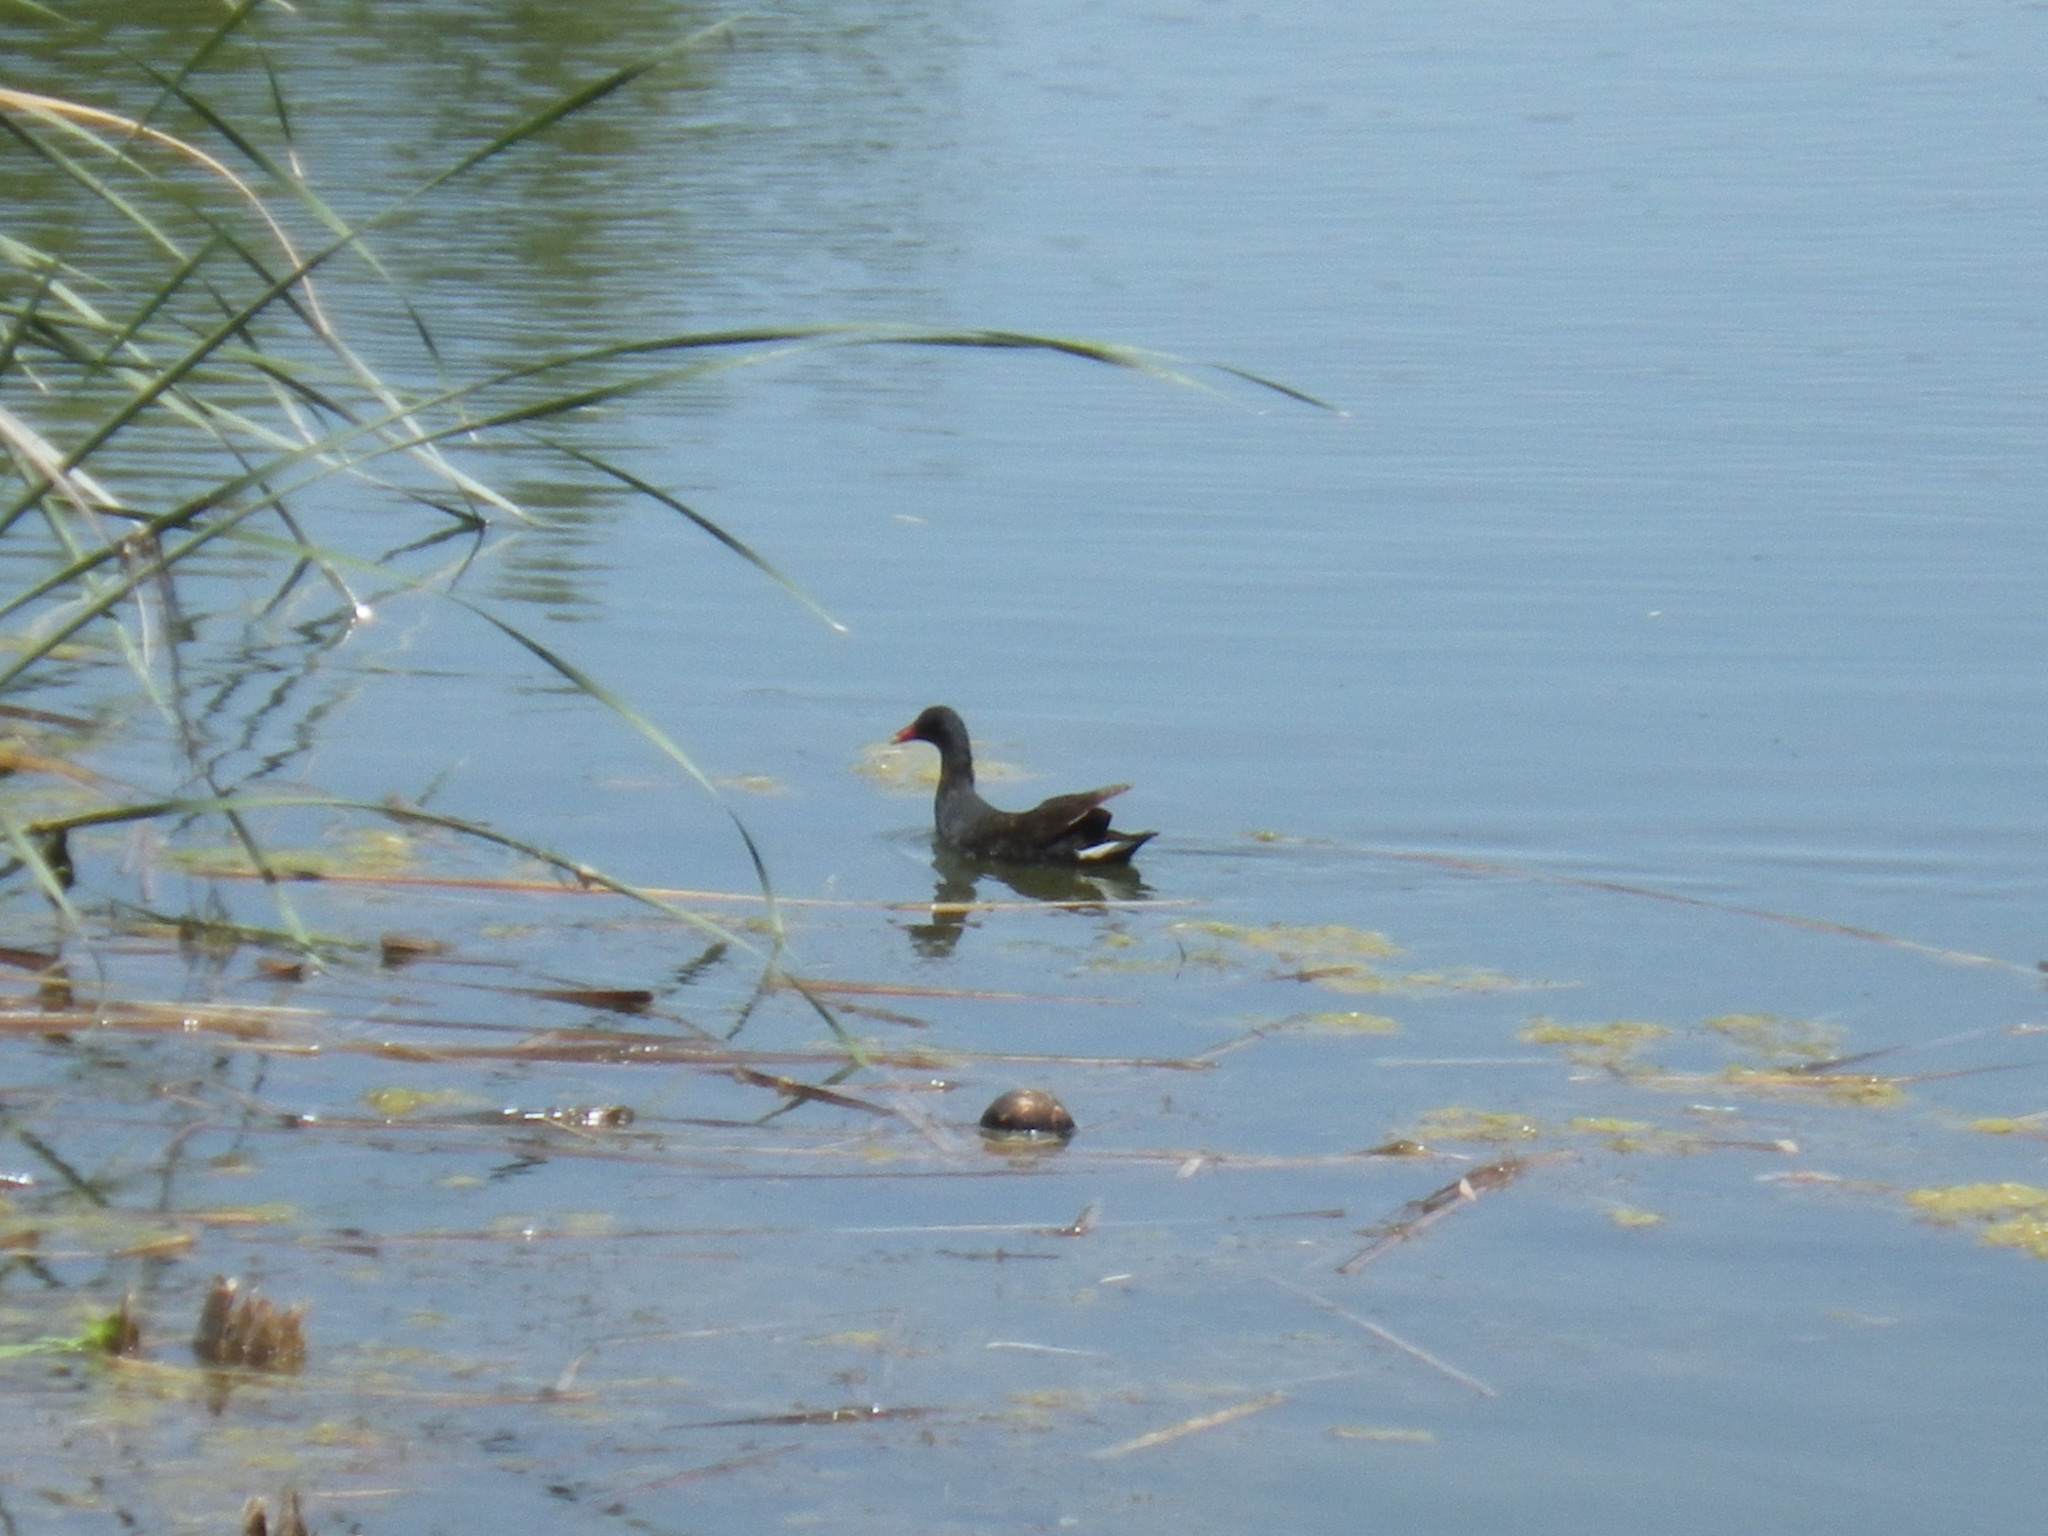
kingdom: Animalia
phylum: Chordata
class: Aves
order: Gruiformes
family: Rallidae
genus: Gallinula
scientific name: Gallinula chloropus
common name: Common moorhen
